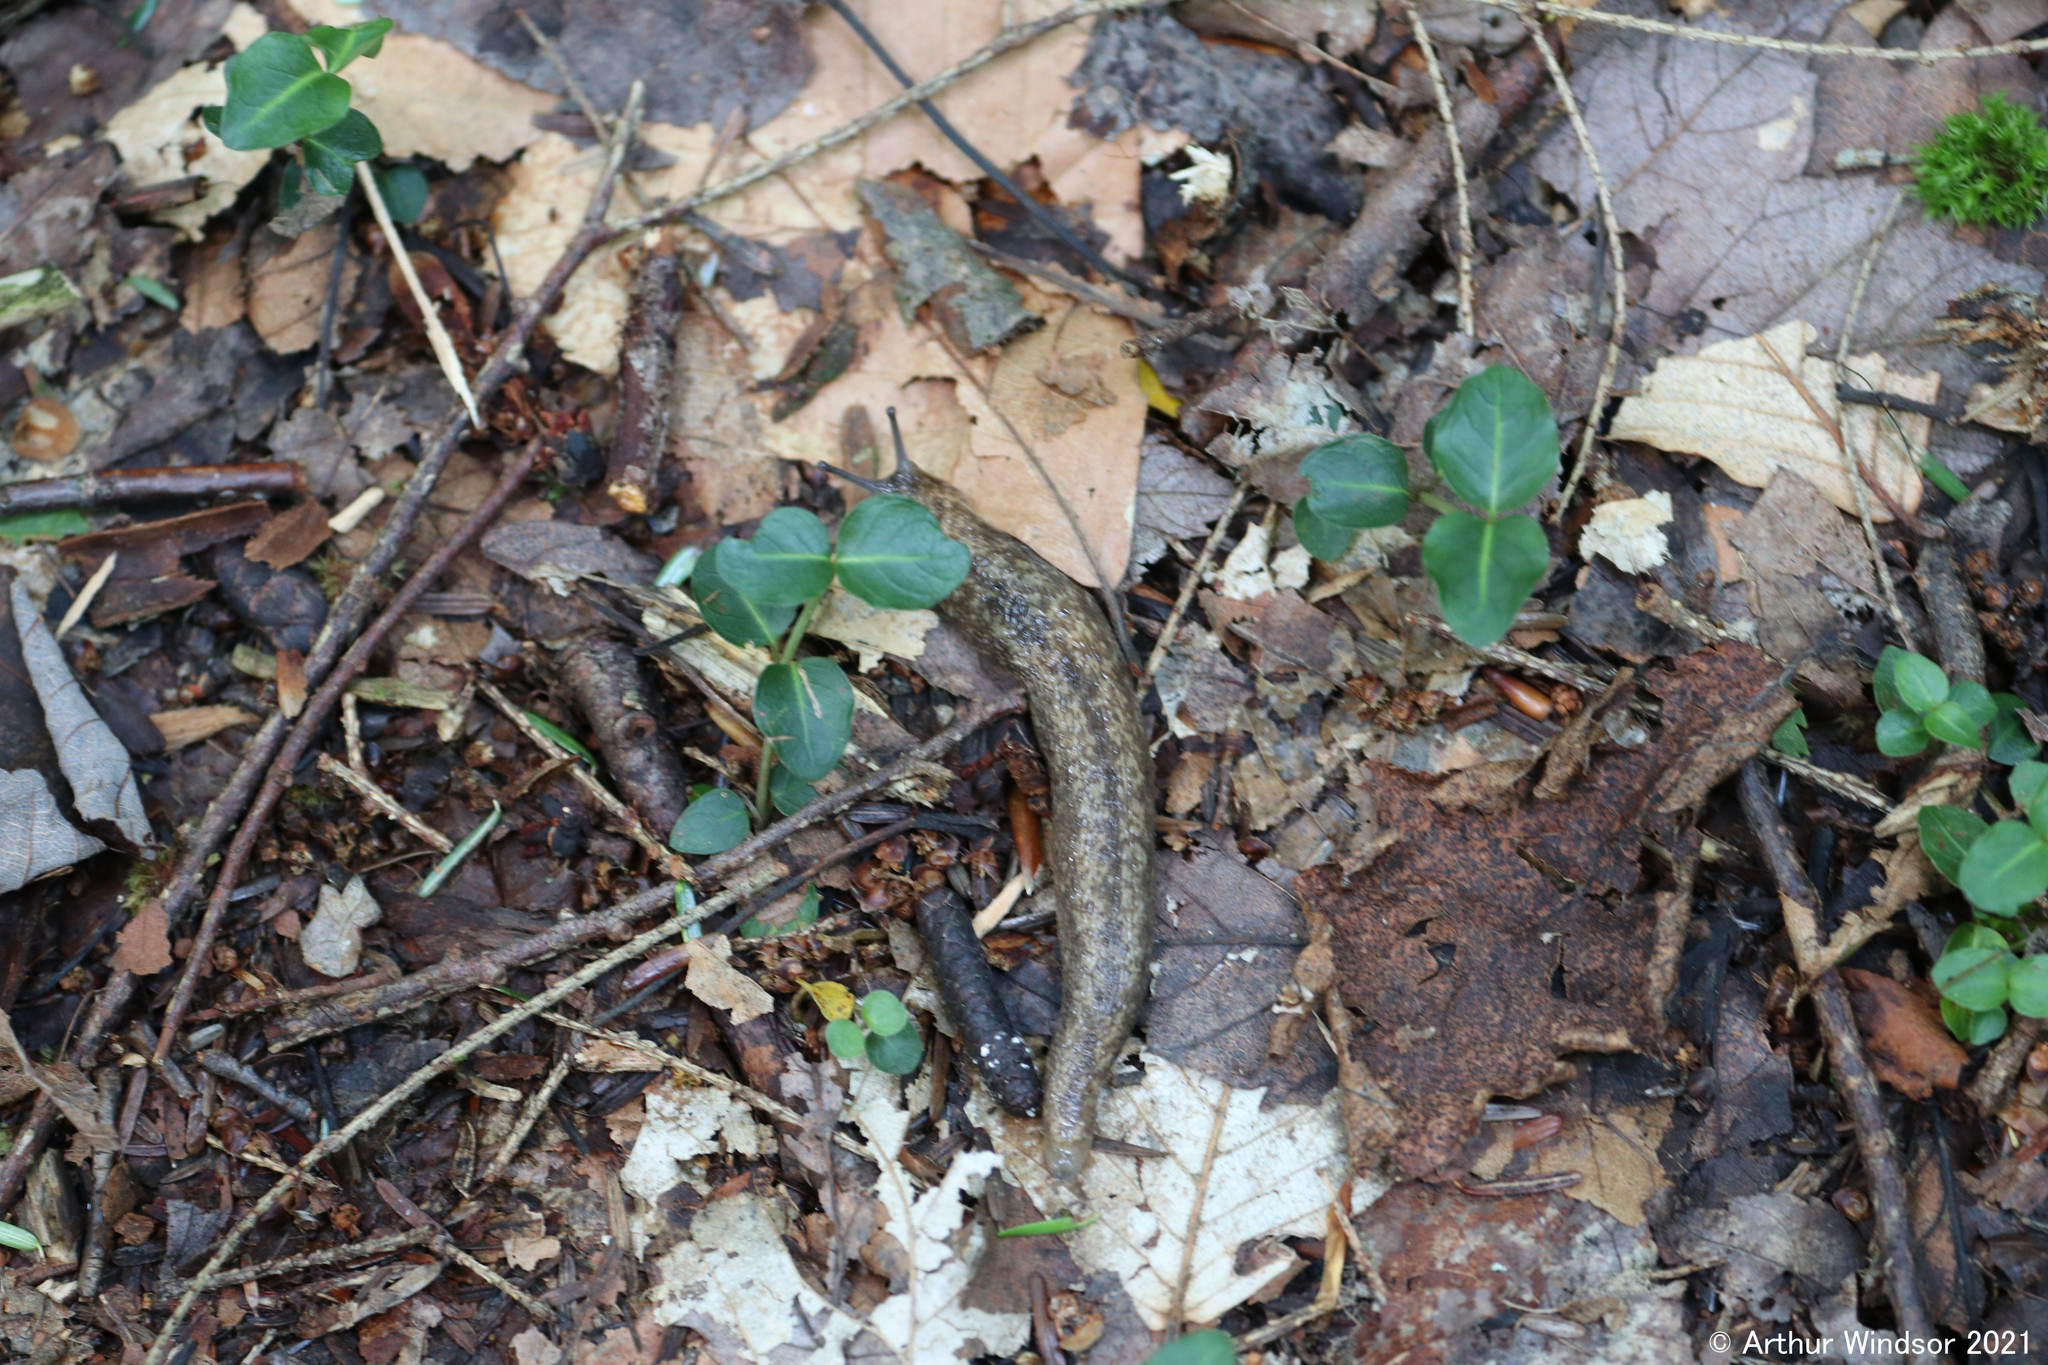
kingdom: Animalia
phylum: Mollusca
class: Gastropoda
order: Stylommatophora
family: Philomycidae
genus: Philomycus
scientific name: Philomycus flexuolaris
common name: Winding mantleslug
